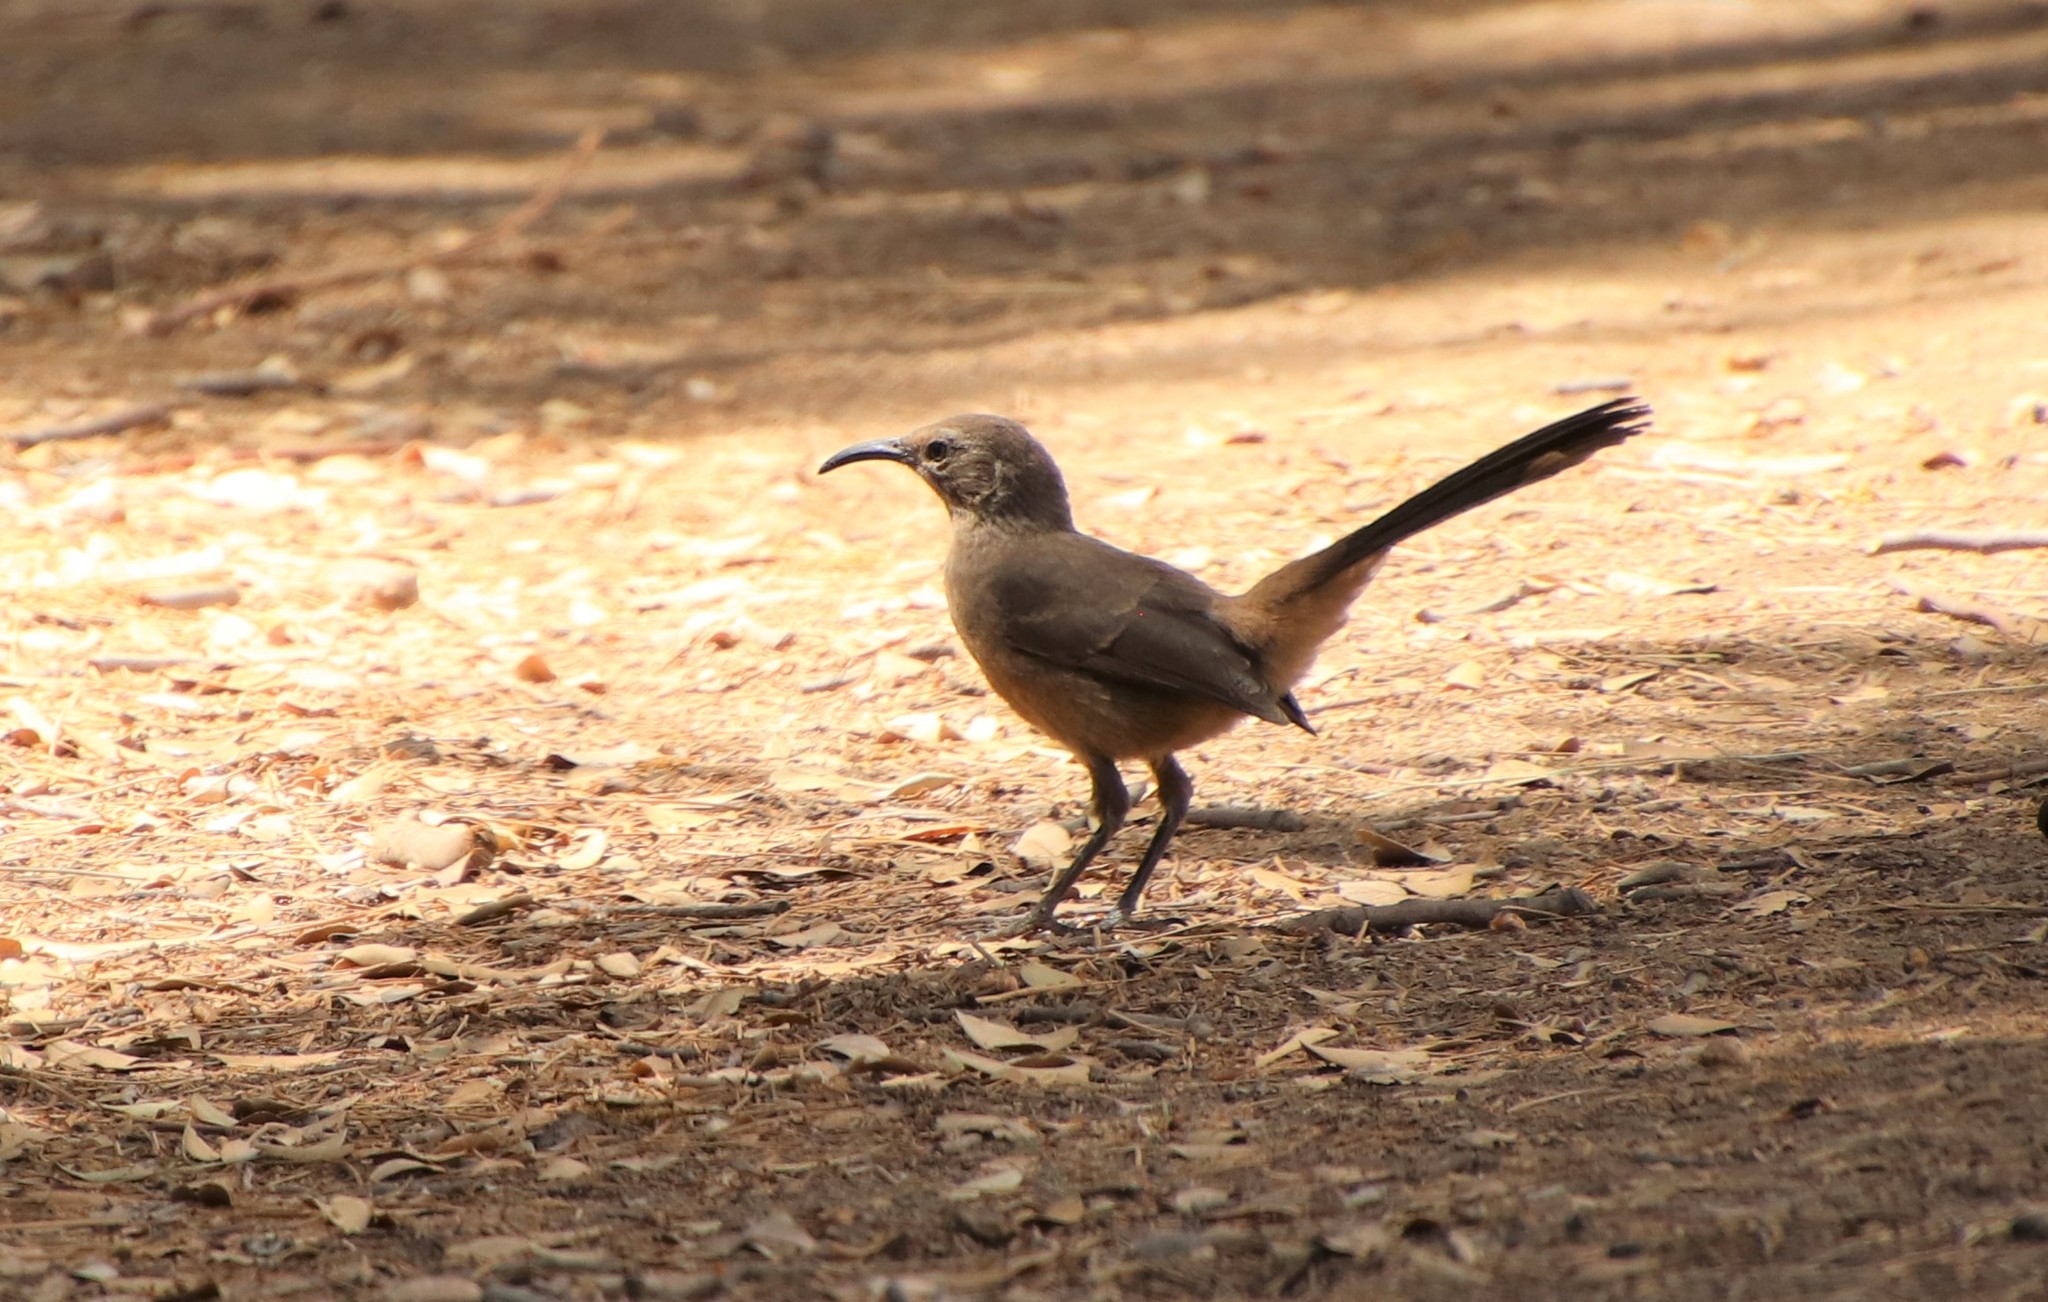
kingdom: Animalia
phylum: Chordata
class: Aves
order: Passeriformes
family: Mimidae
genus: Toxostoma
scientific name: Toxostoma redivivum
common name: California thrasher
